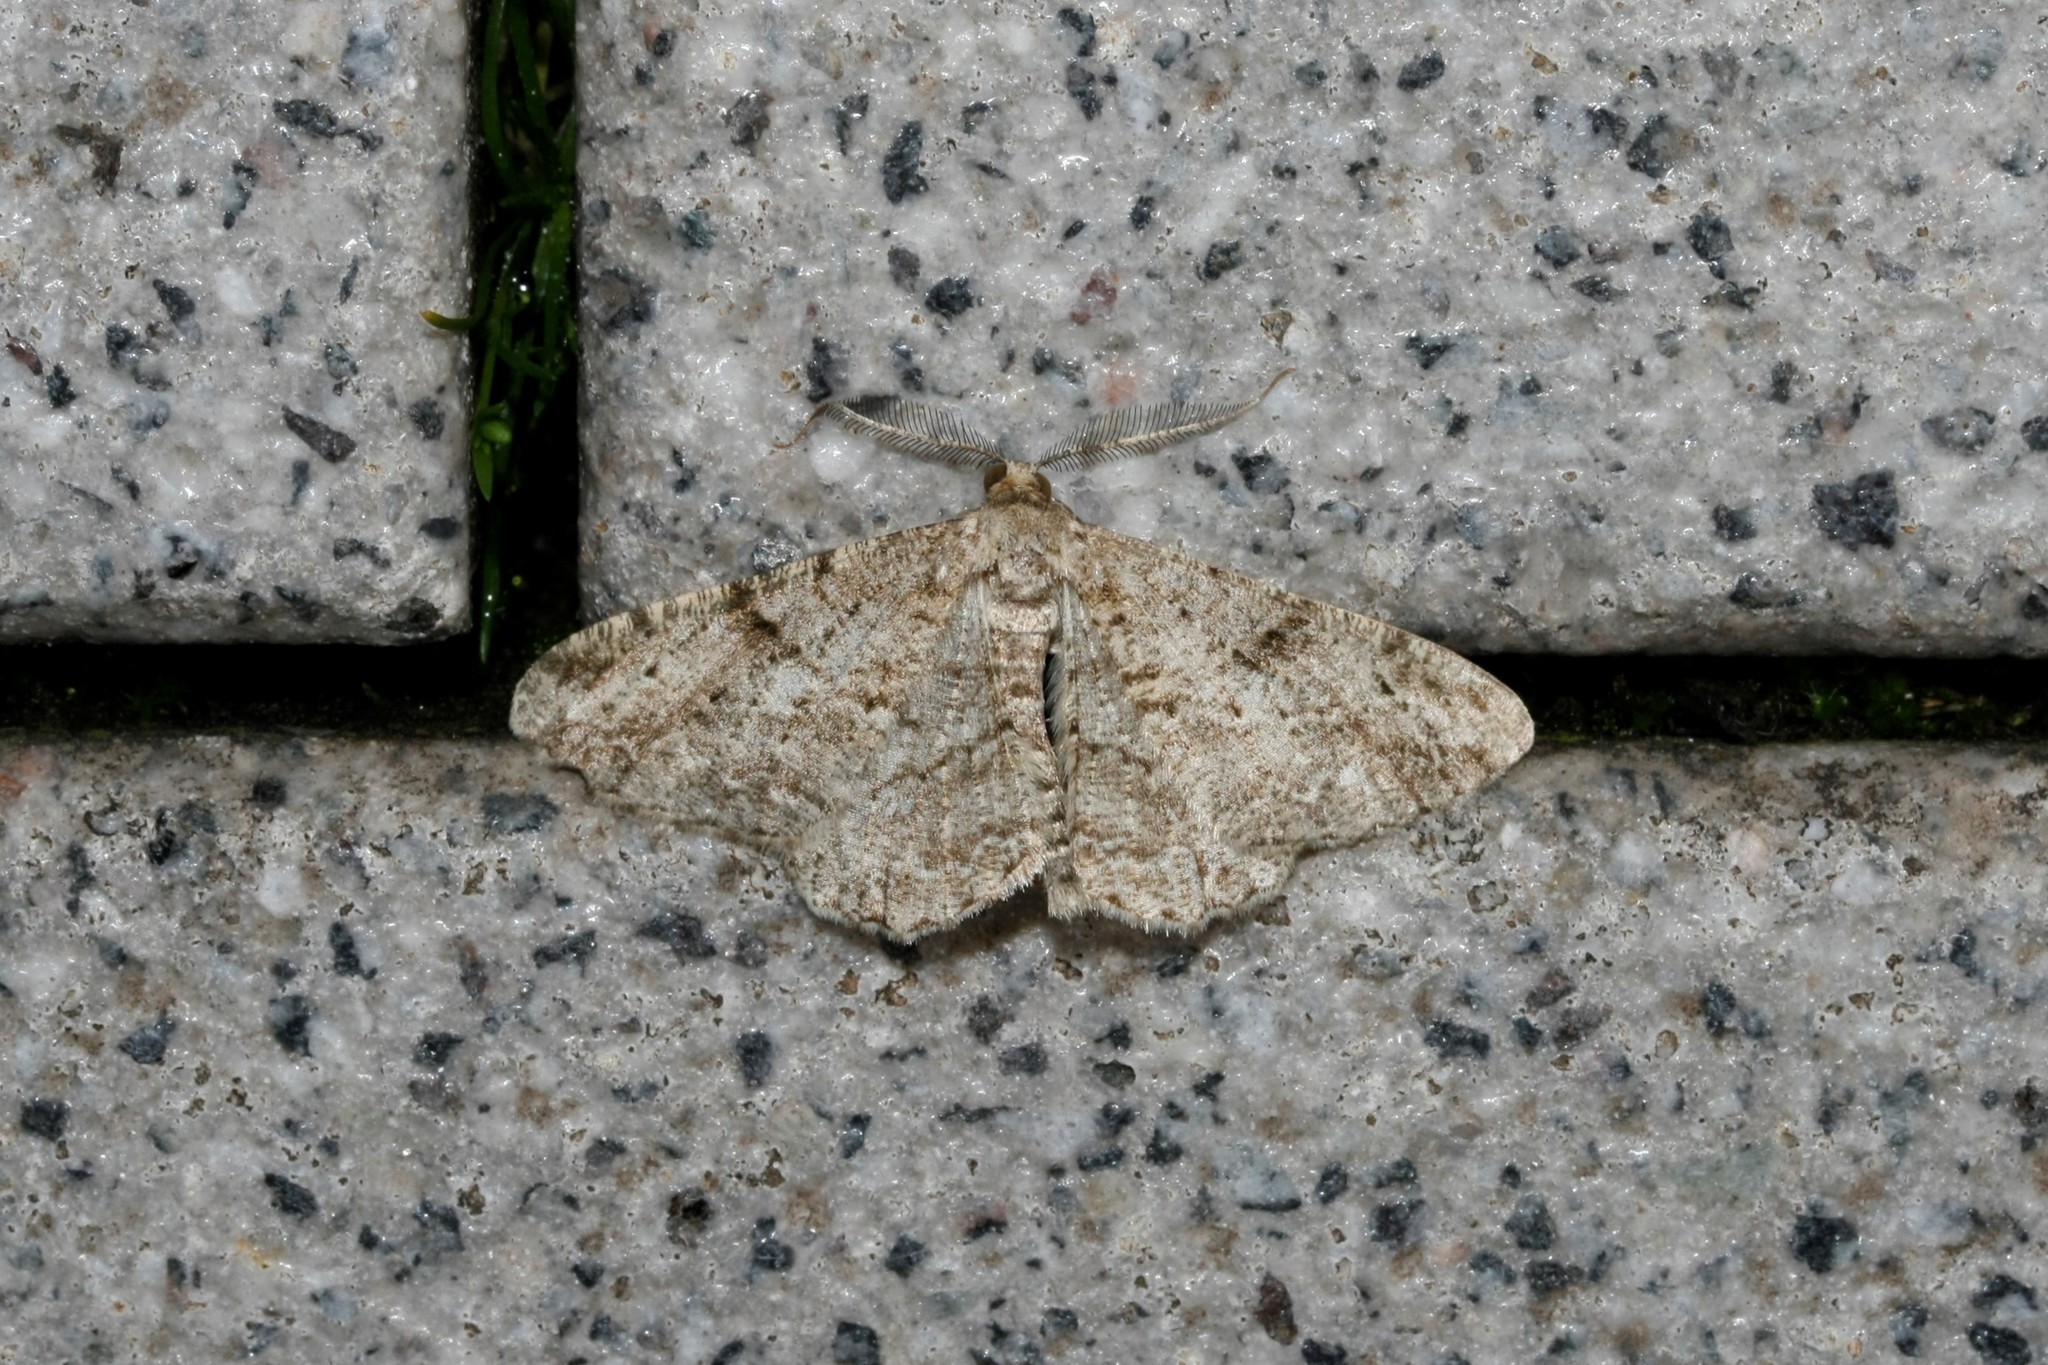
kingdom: Animalia
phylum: Arthropoda
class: Insecta
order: Lepidoptera
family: Geometridae
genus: Peribatodes
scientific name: Peribatodes rhomboidaria
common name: Willow beauty
